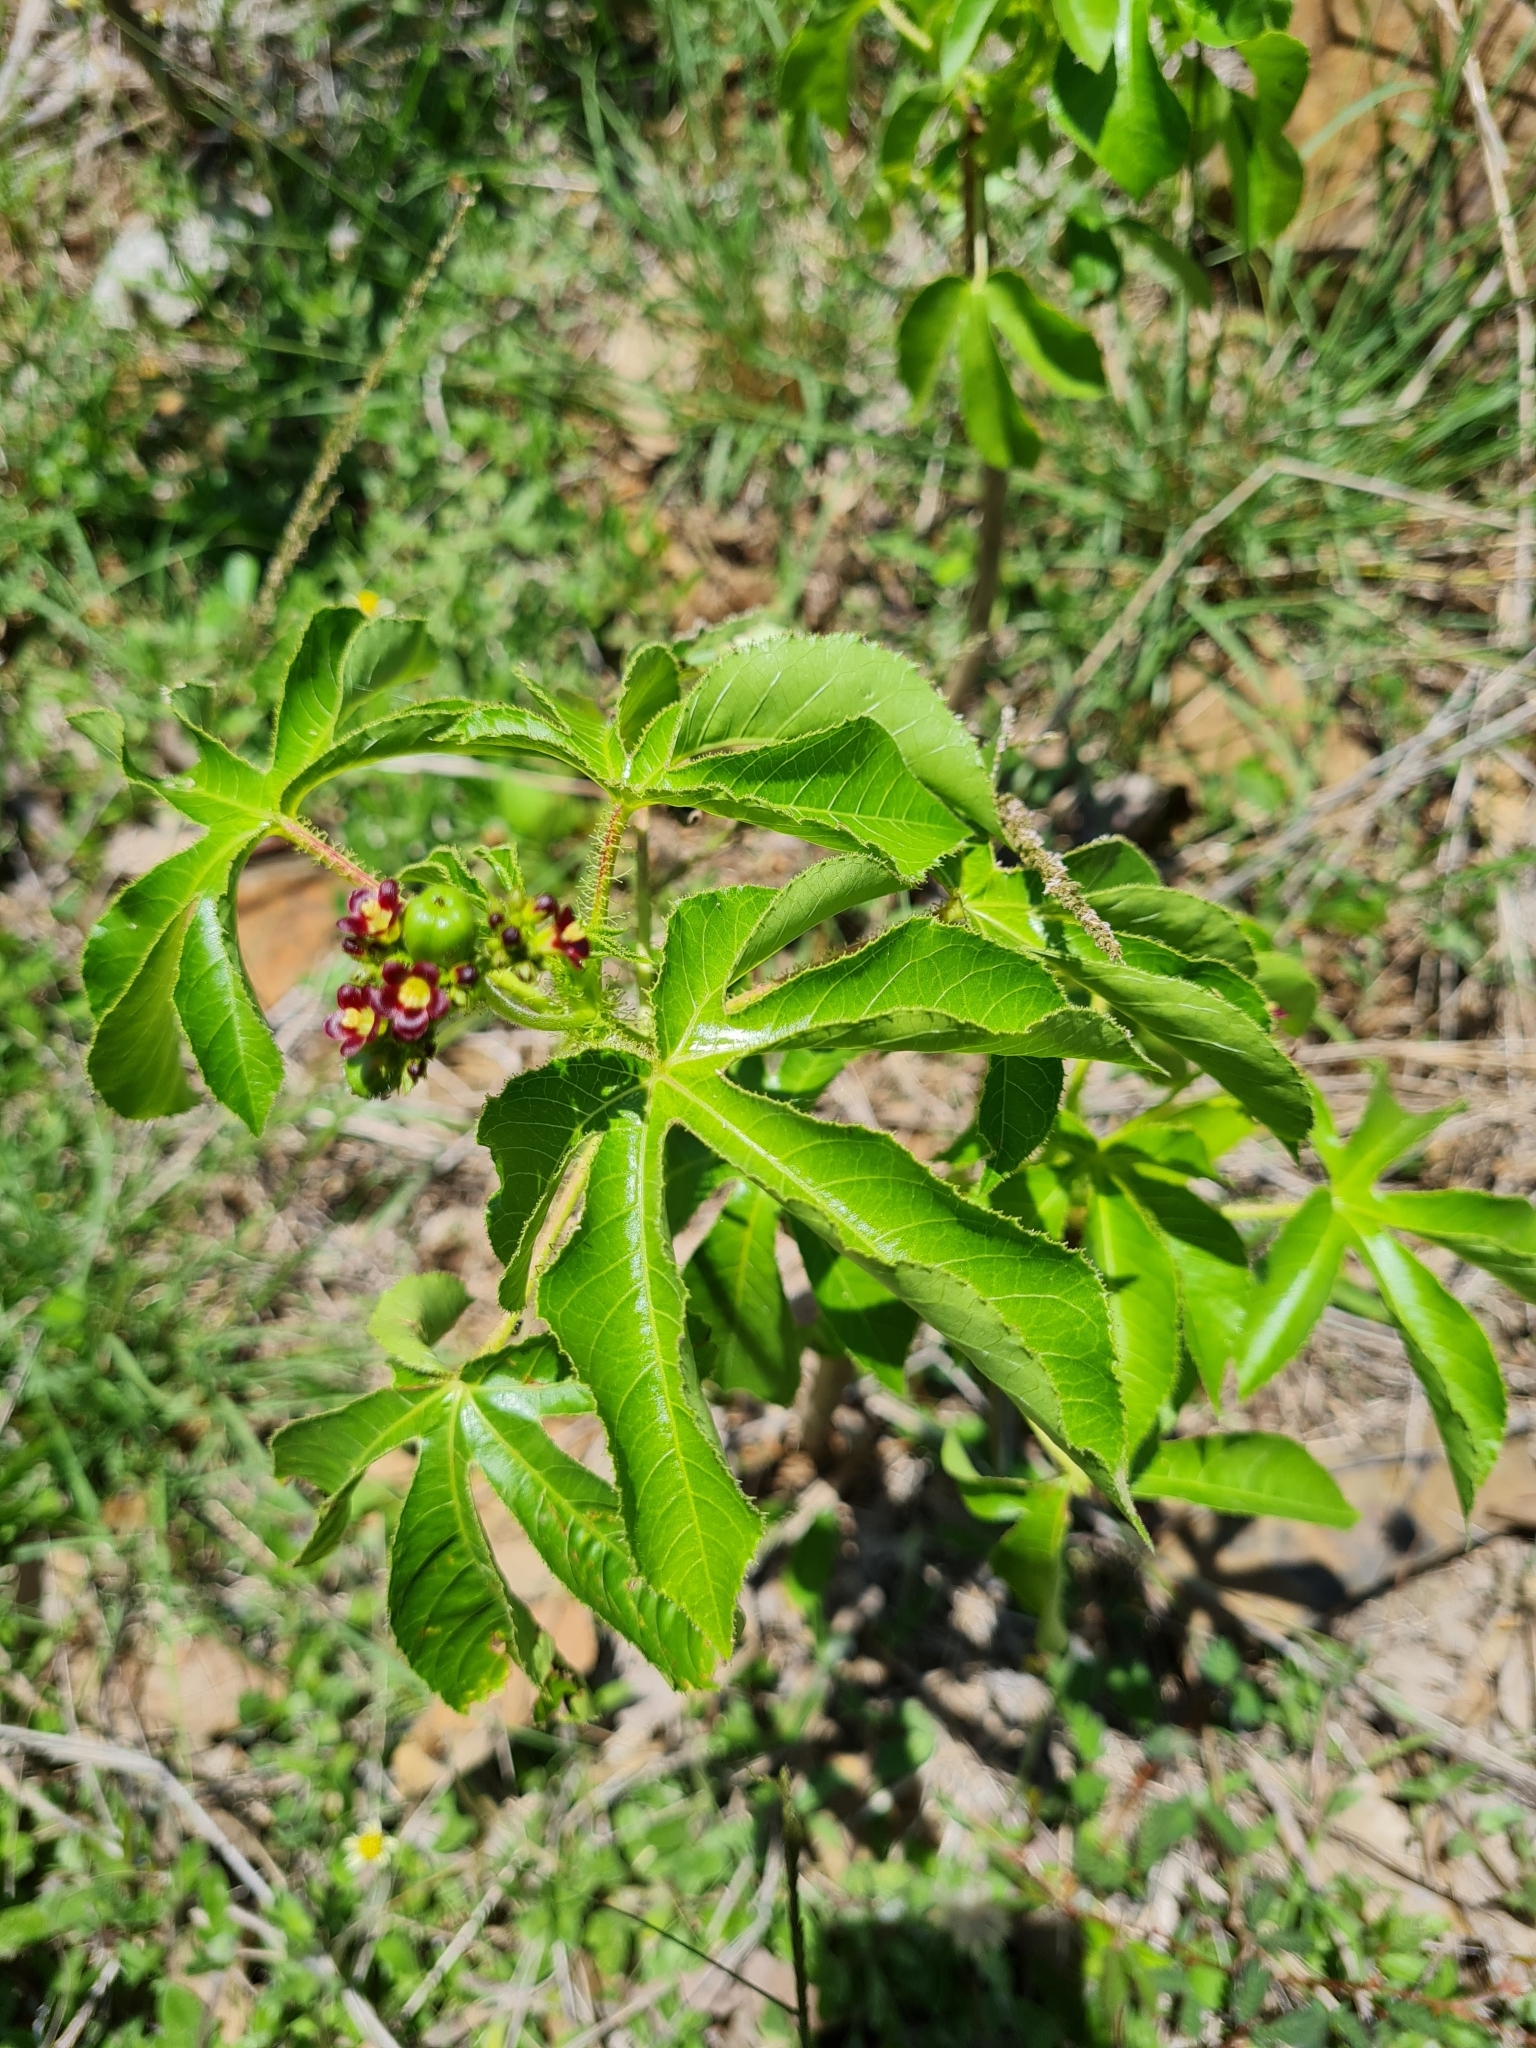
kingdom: Plantae
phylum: Tracheophyta
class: Magnoliopsida
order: Malpighiales
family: Euphorbiaceae
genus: Jatropha
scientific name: Jatropha gossypiifolia
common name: Bellyache bush
